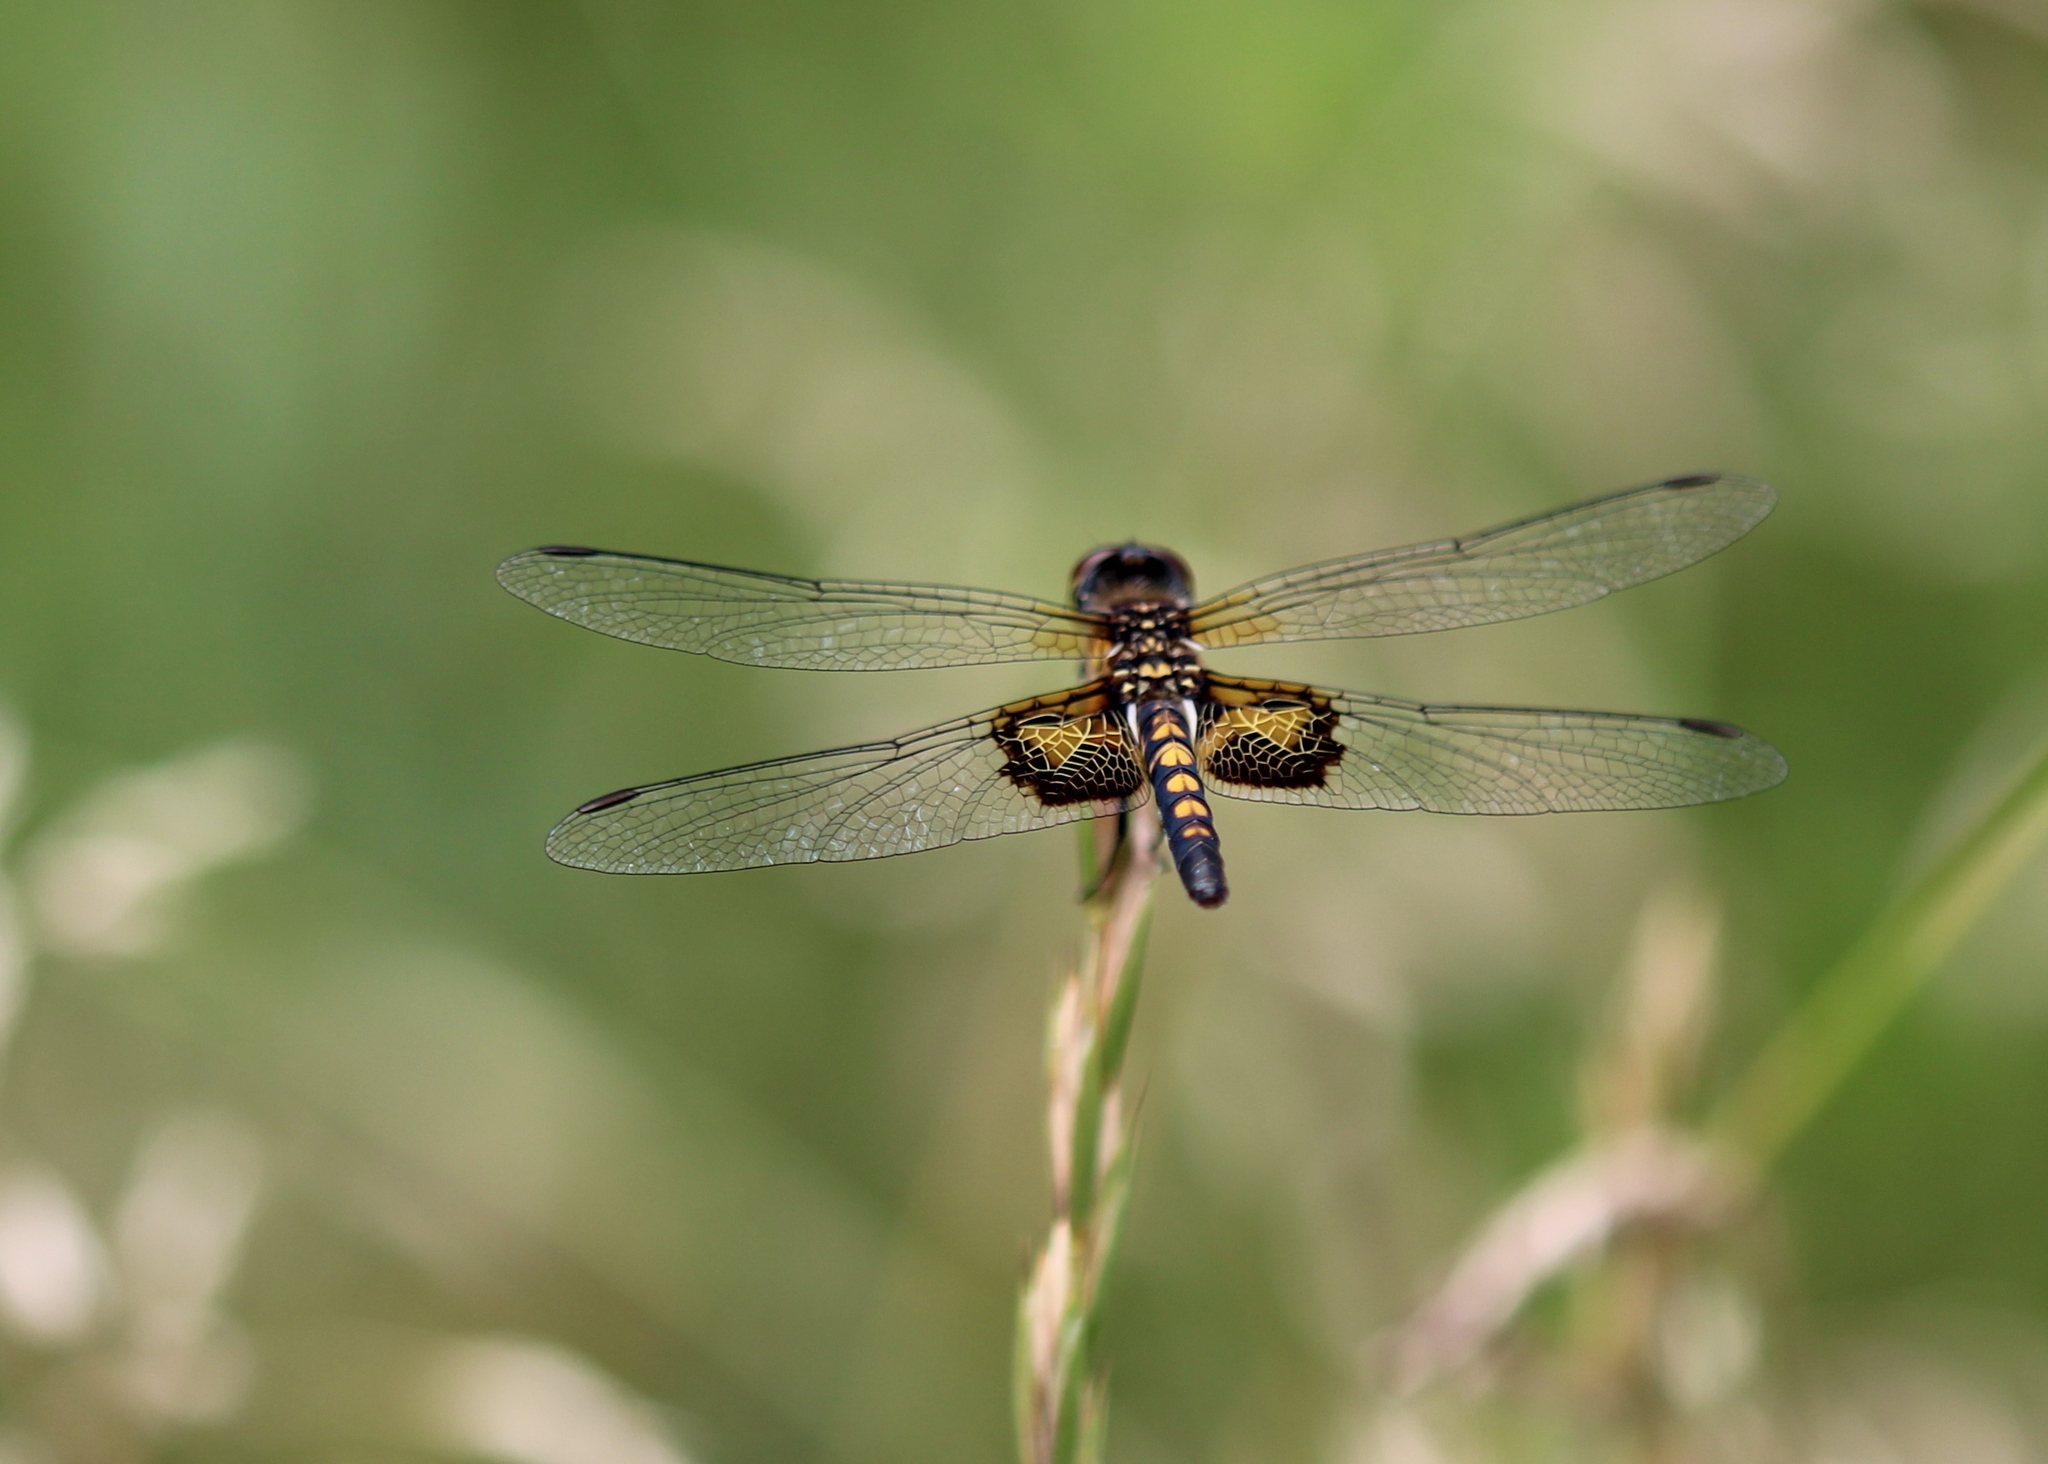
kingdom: Animalia
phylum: Arthropoda
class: Insecta
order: Odonata
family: Libellulidae
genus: Celithemis
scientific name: Celithemis martha
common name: Martha's pennant
